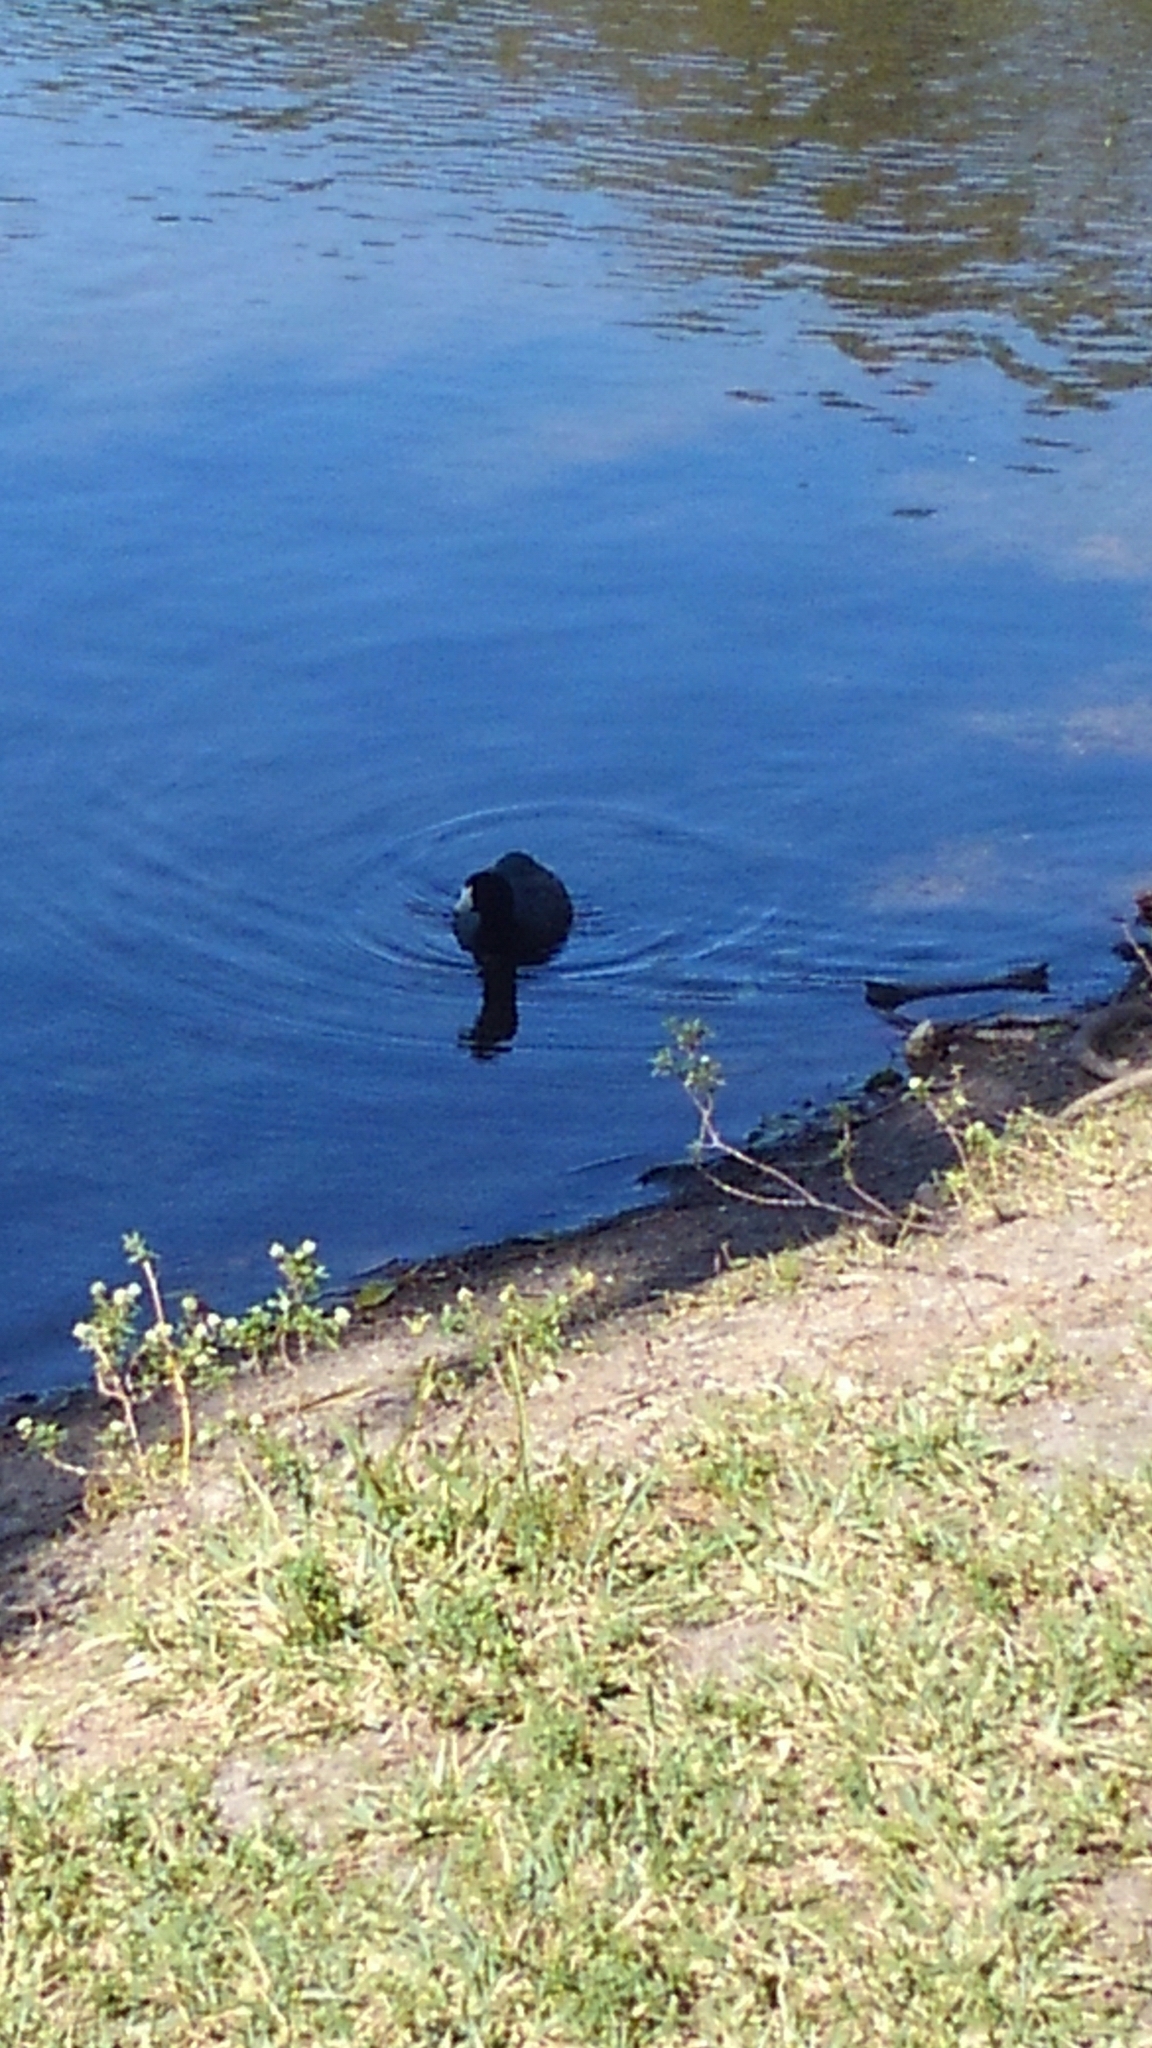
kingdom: Animalia
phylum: Chordata
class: Aves
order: Gruiformes
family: Rallidae
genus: Fulica
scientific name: Fulica americana
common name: American coot
